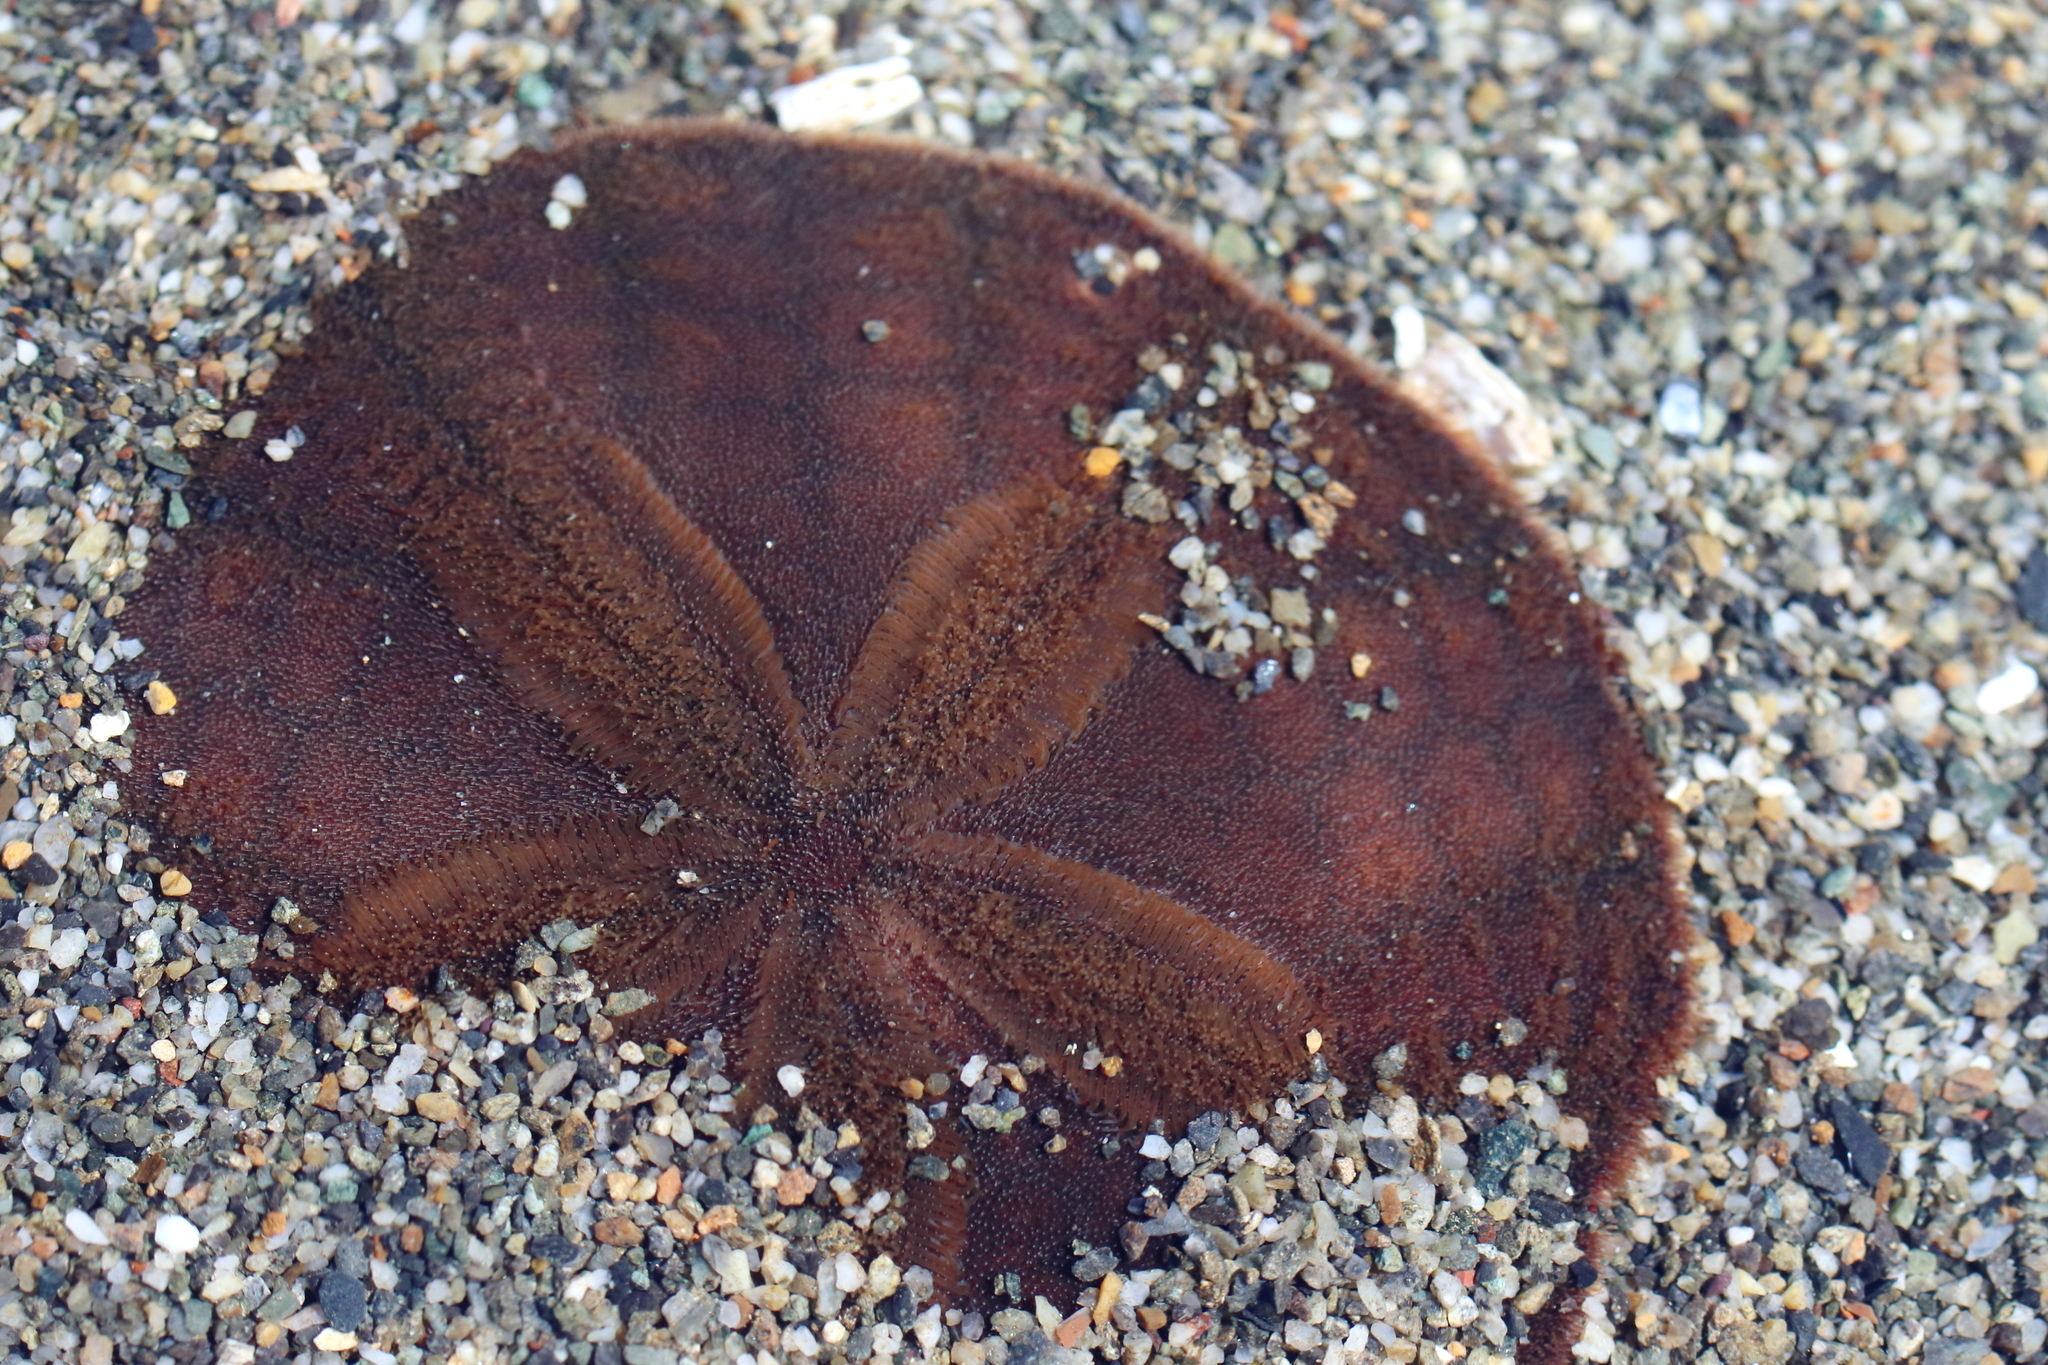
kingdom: Animalia
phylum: Echinodermata
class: Echinoidea
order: Echinolampadacea
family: Echinarachniidae
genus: Echinarachnius
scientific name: Echinarachnius parma
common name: Common sand dollar
